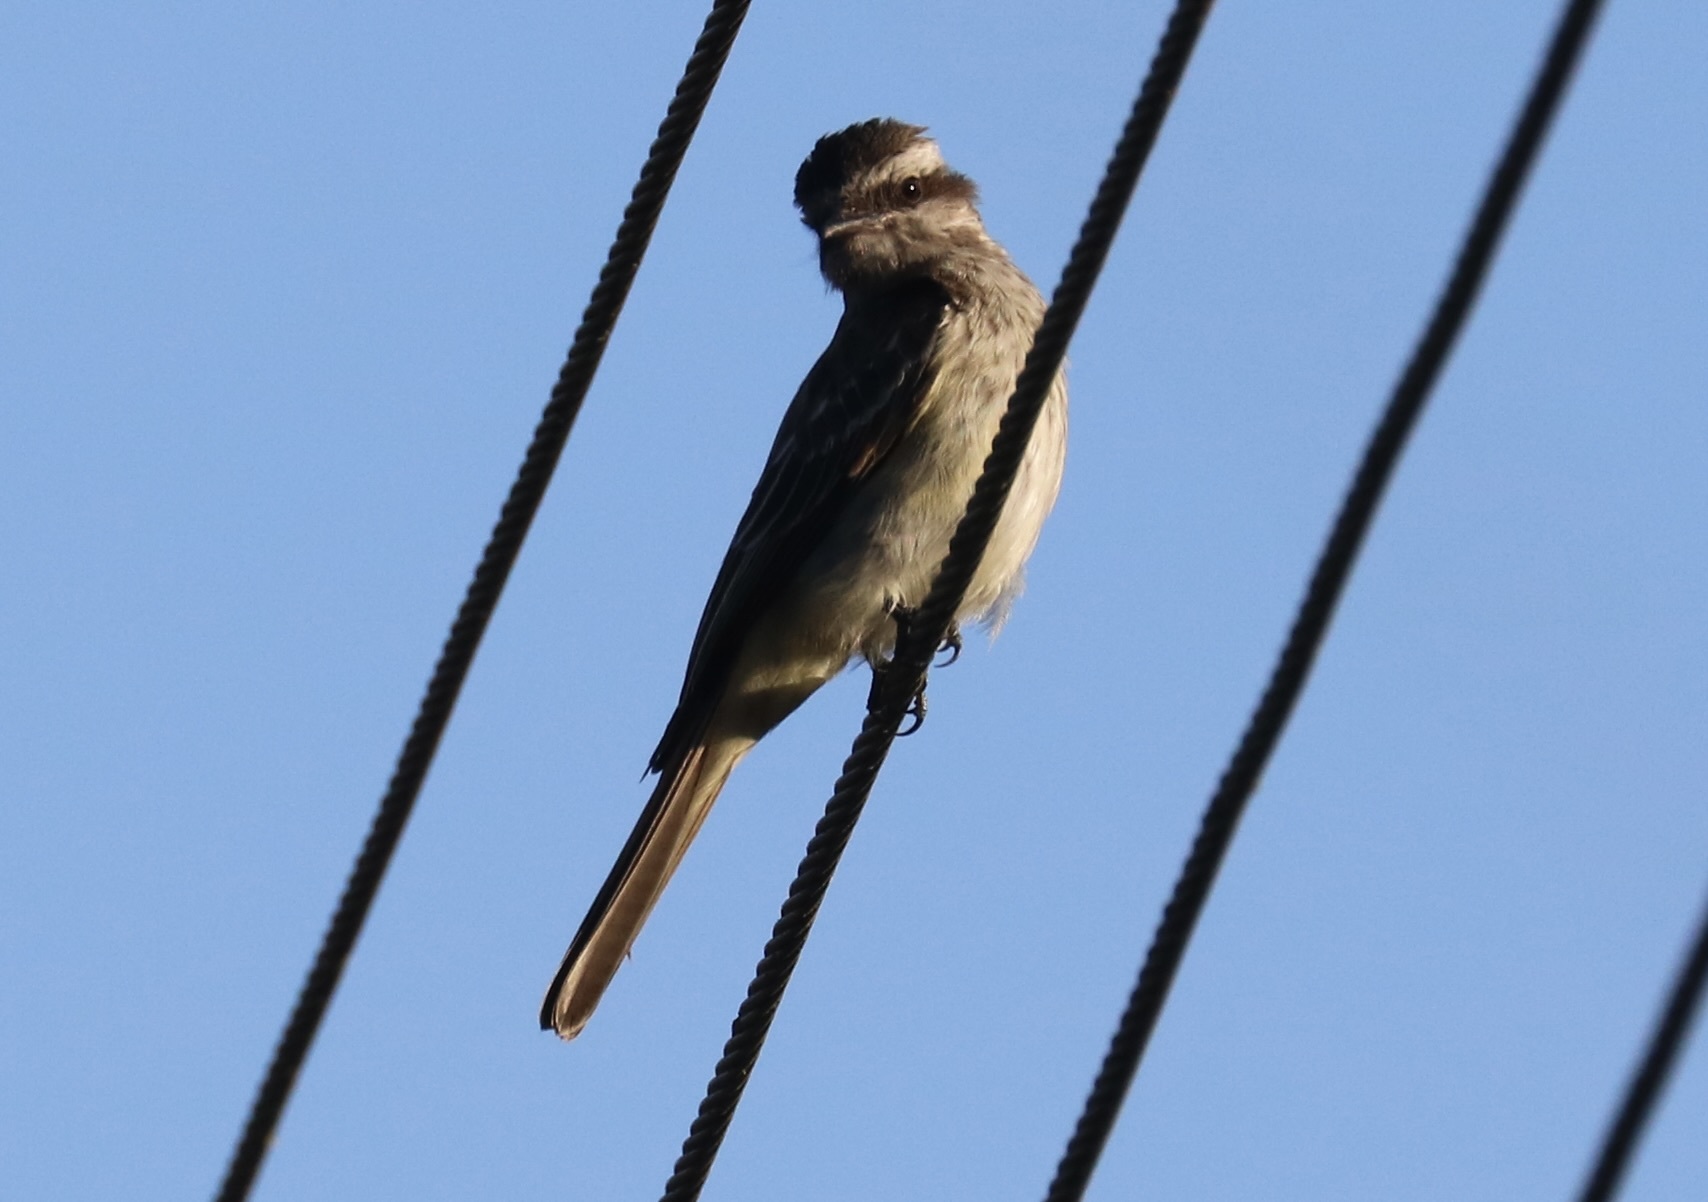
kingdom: Animalia
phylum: Chordata
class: Aves
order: Passeriformes
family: Tyrannidae
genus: Empidonomus
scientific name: Empidonomus varius
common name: Variegated flycatcher
